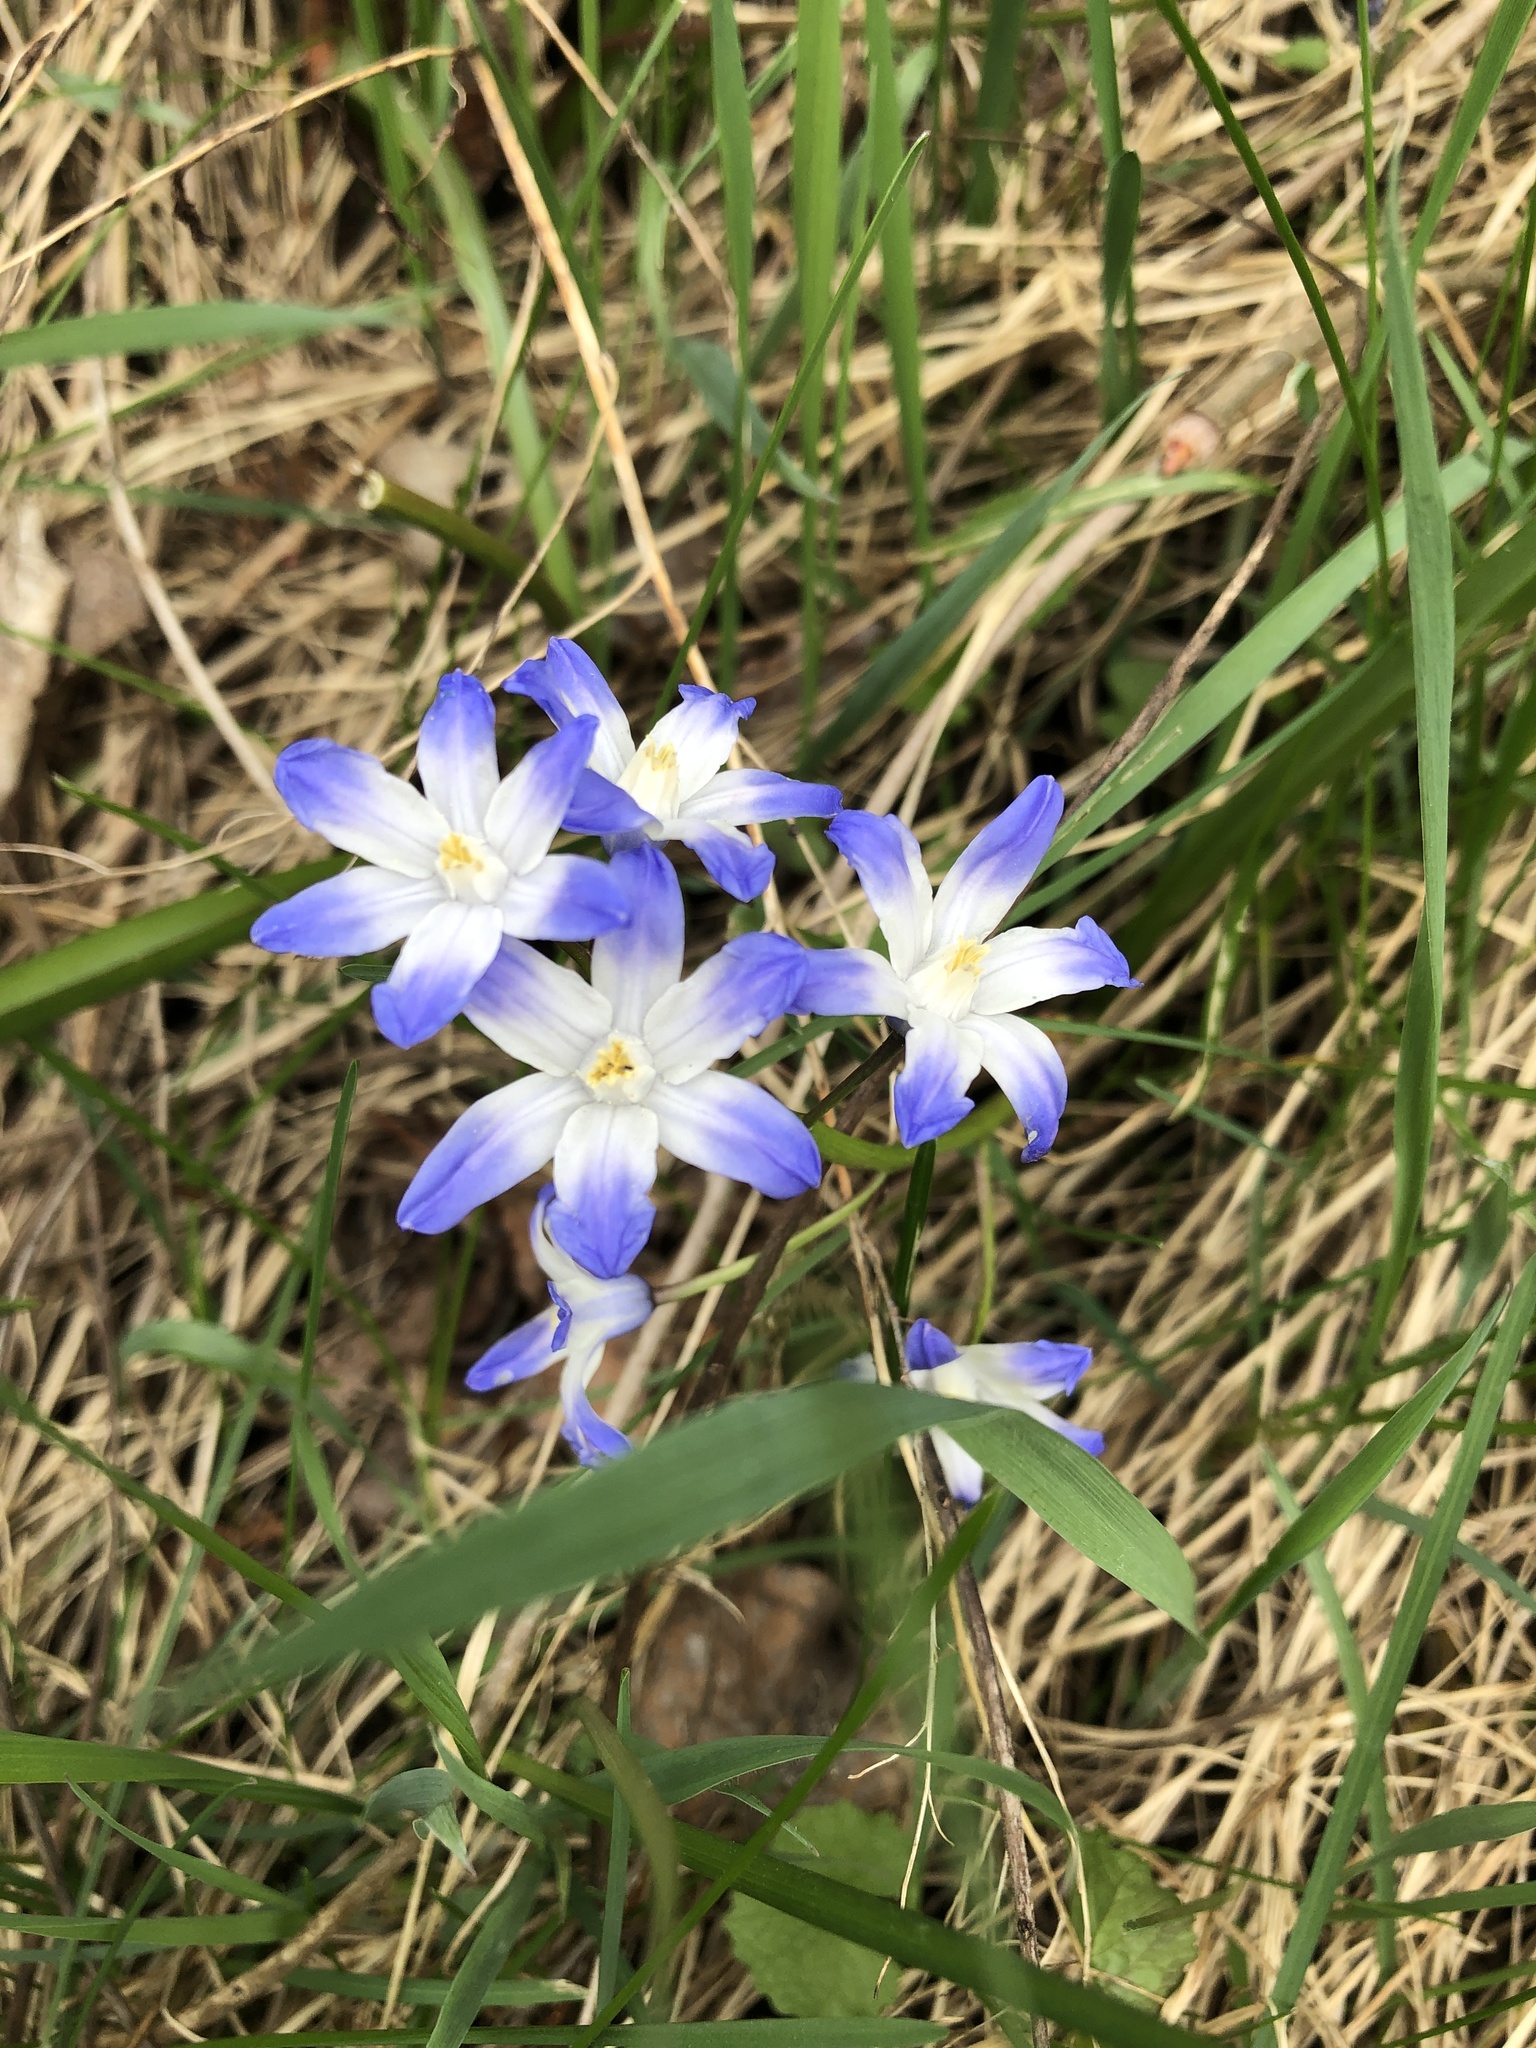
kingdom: Plantae
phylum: Tracheophyta
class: Liliopsida
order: Asparagales
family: Asparagaceae
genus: Scilla
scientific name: Scilla forbesii
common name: Glory-of-the-snow
